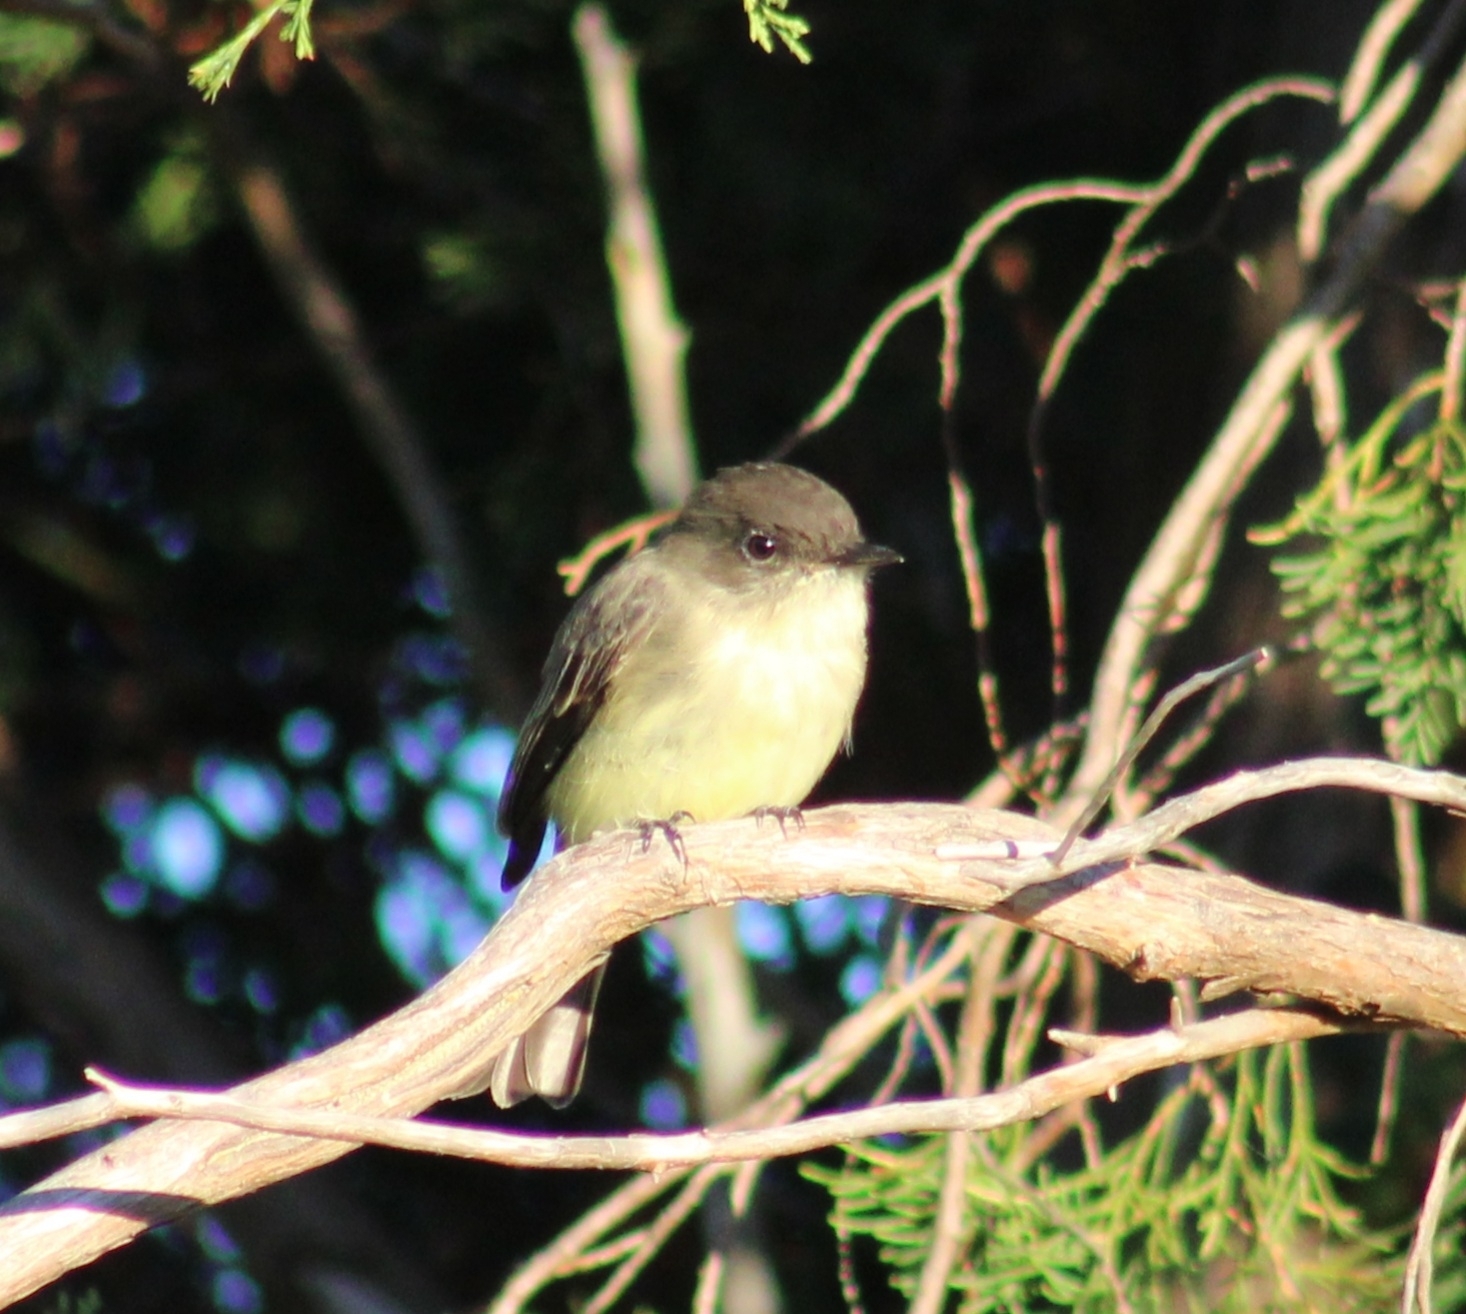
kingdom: Animalia
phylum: Chordata
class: Aves
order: Passeriformes
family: Tyrannidae
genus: Sayornis
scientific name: Sayornis phoebe
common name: Eastern phoebe
